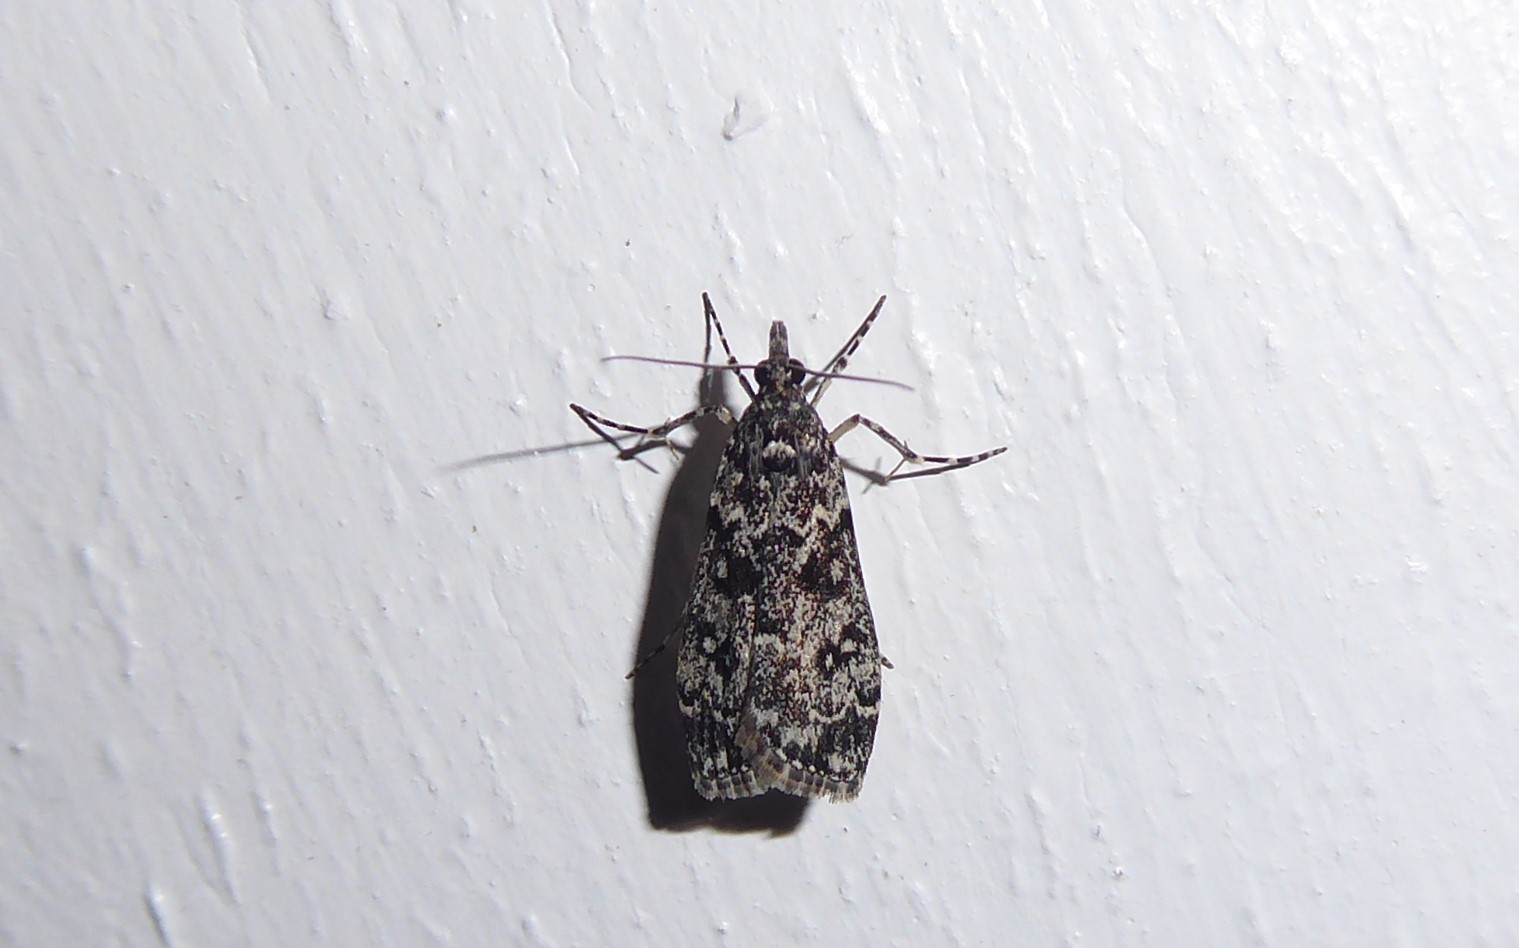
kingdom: Animalia
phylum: Arthropoda
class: Insecta
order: Lepidoptera
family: Crambidae
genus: Eudonia
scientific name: Eudonia philerga
